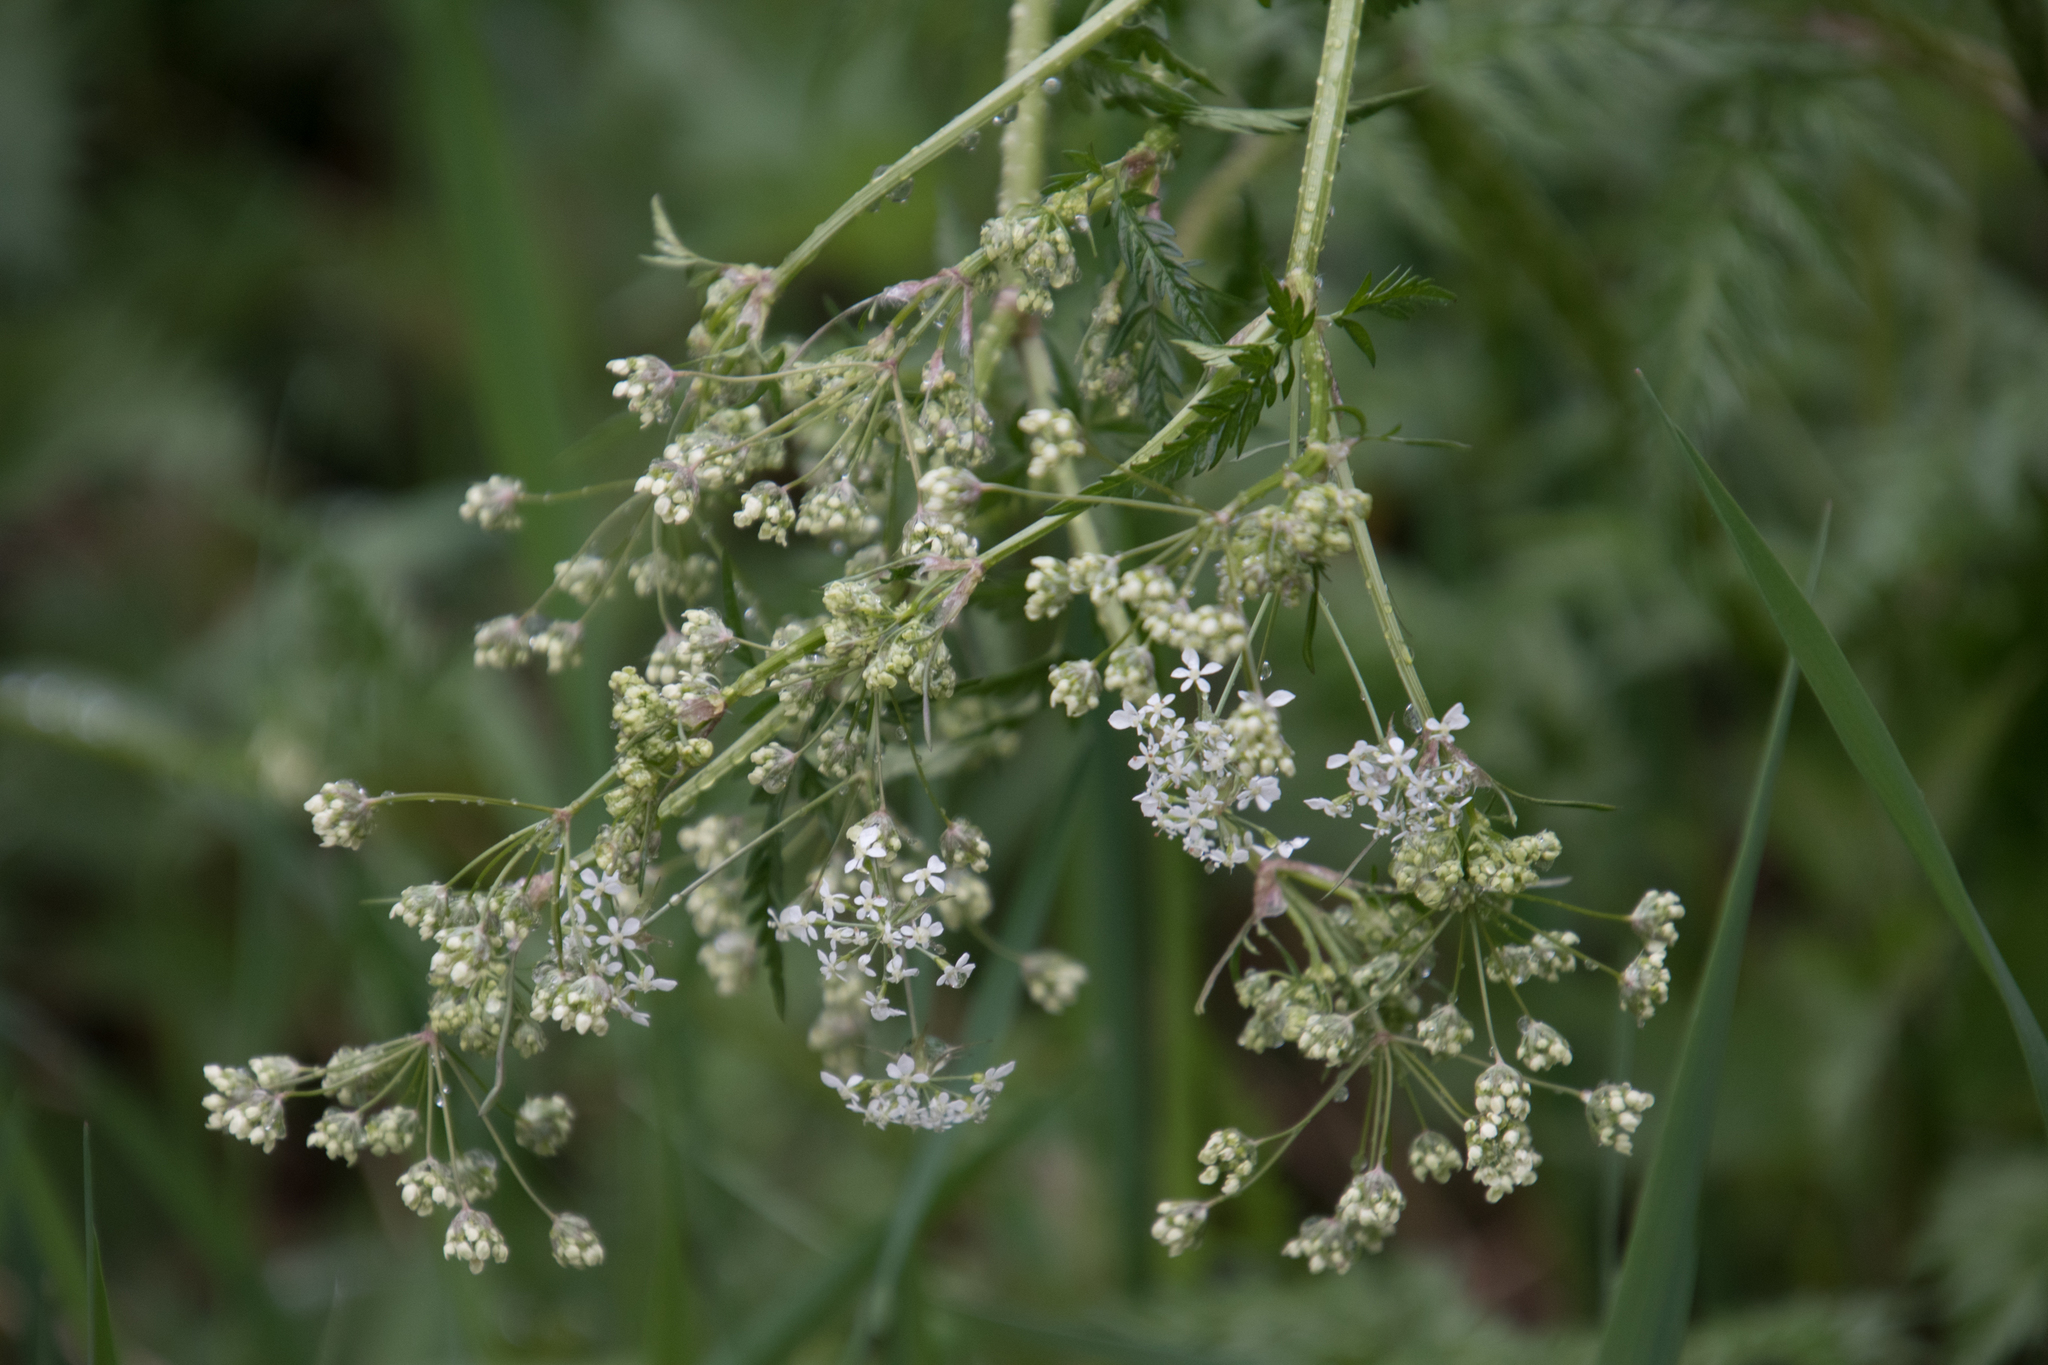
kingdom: Plantae
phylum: Tracheophyta
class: Magnoliopsida
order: Apiales
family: Apiaceae
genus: Anthriscus
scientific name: Anthriscus sylvestris
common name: Cow parsley
